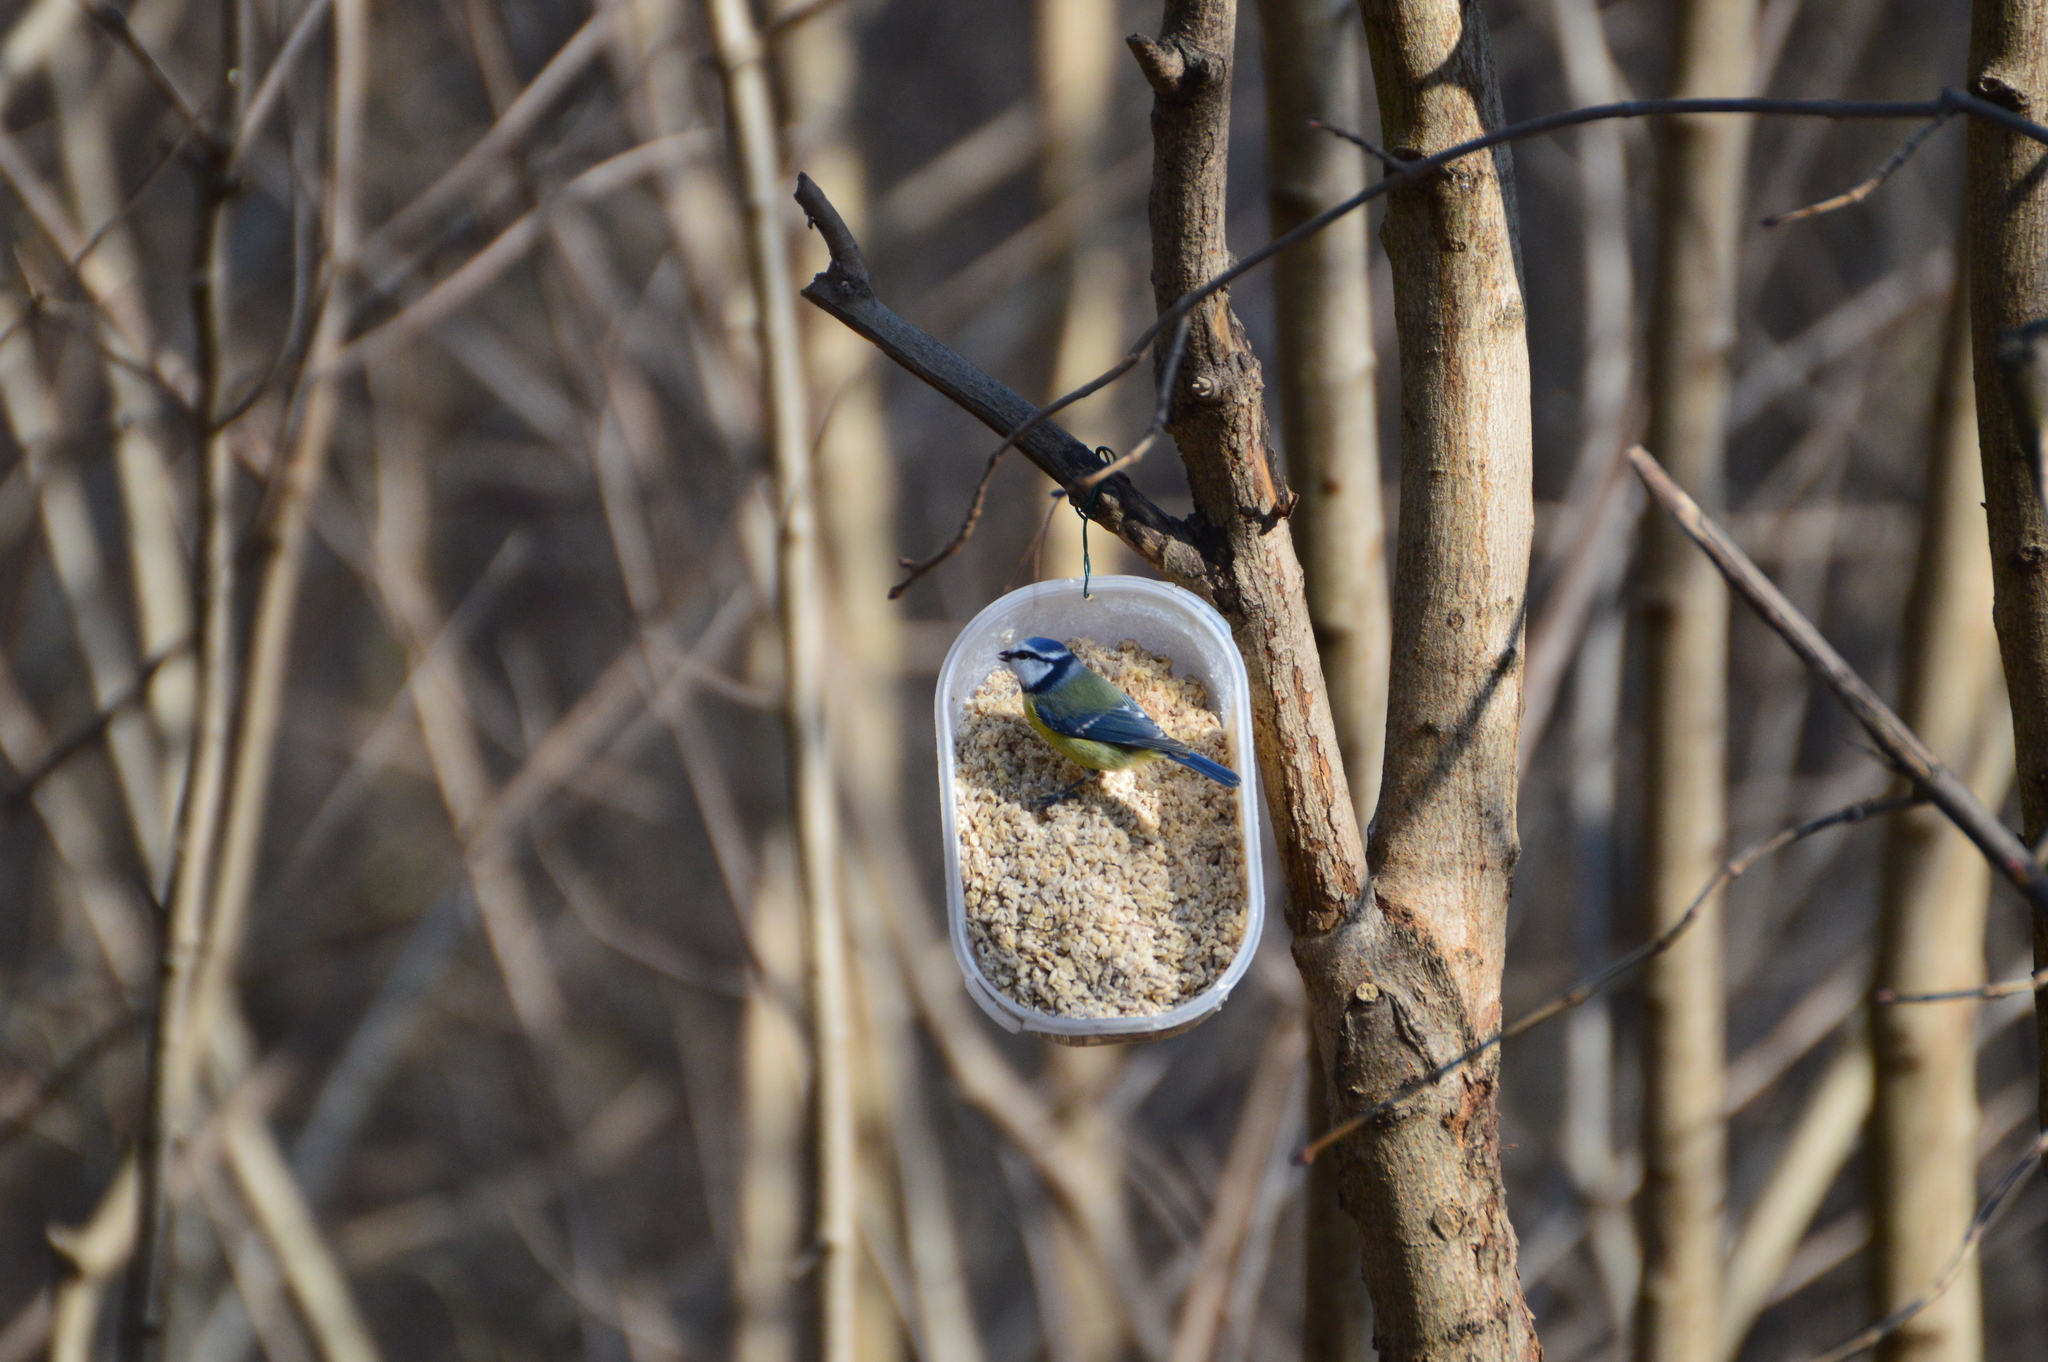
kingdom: Animalia
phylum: Chordata
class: Aves
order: Passeriformes
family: Paridae
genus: Cyanistes
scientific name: Cyanistes caeruleus
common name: Eurasian blue tit
